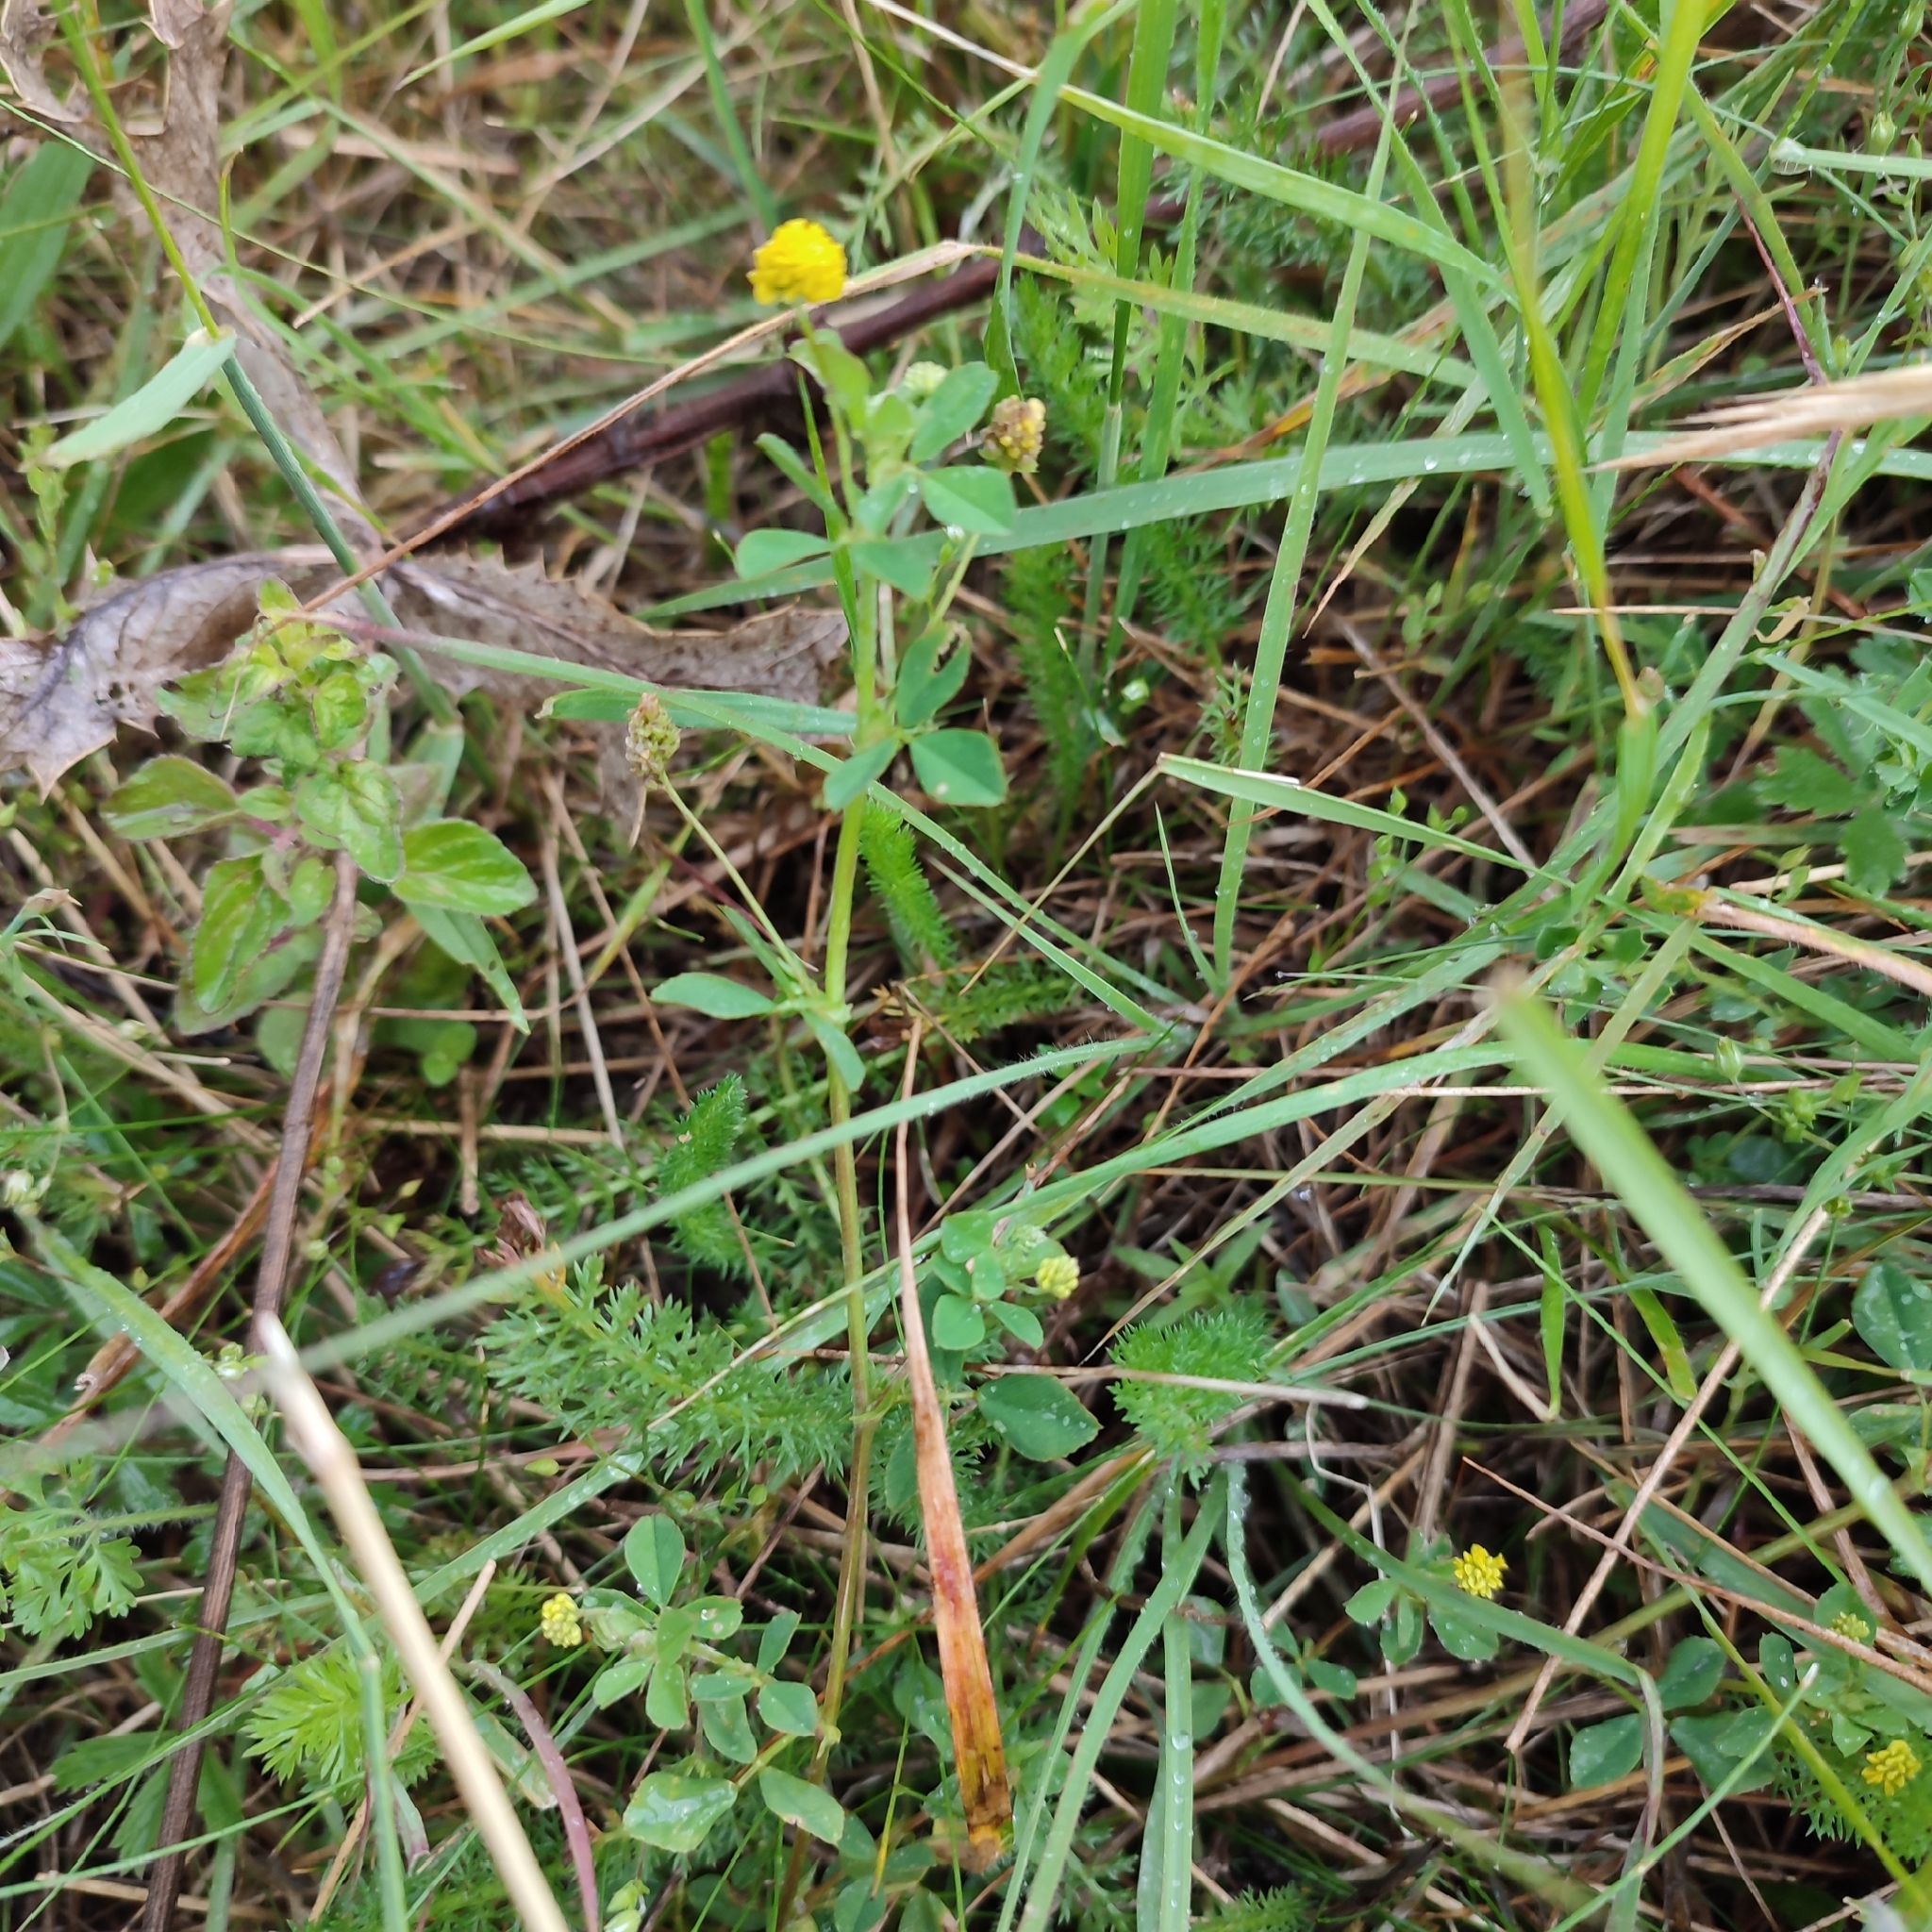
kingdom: Plantae
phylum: Tracheophyta
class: Magnoliopsida
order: Fabales
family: Fabaceae
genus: Medicago
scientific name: Medicago lupulina
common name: Black medick
